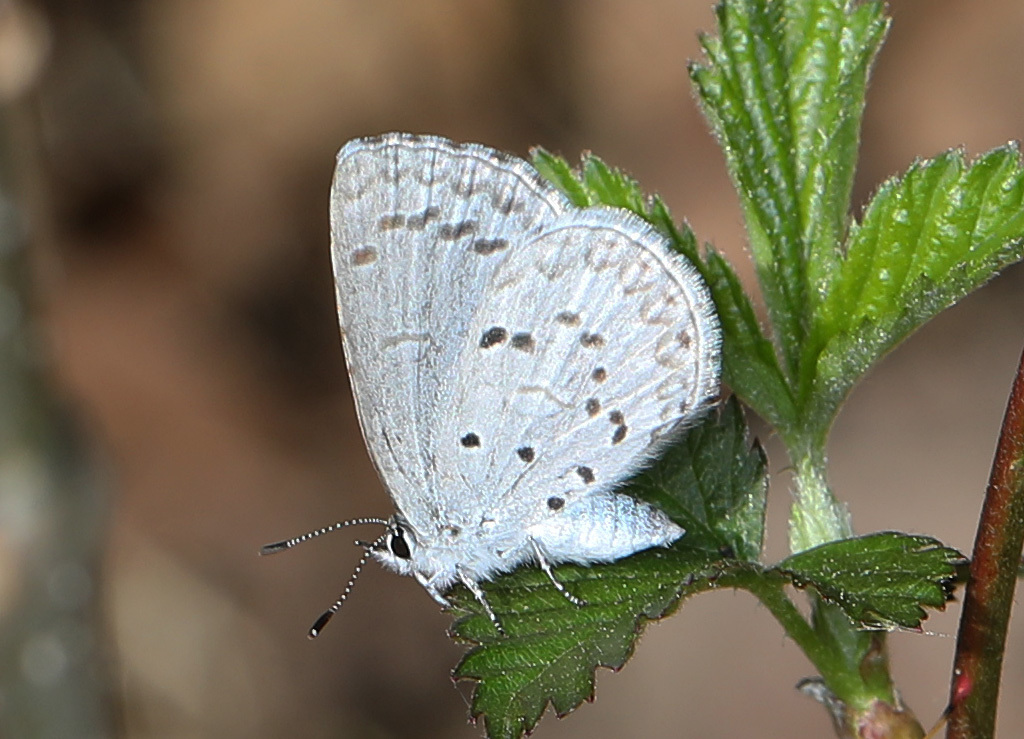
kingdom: Animalia
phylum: Arthropoda
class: Insecta
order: Lepidoptera
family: Lycaenidae
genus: Cyaniris
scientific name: Cyaniris neglecta
